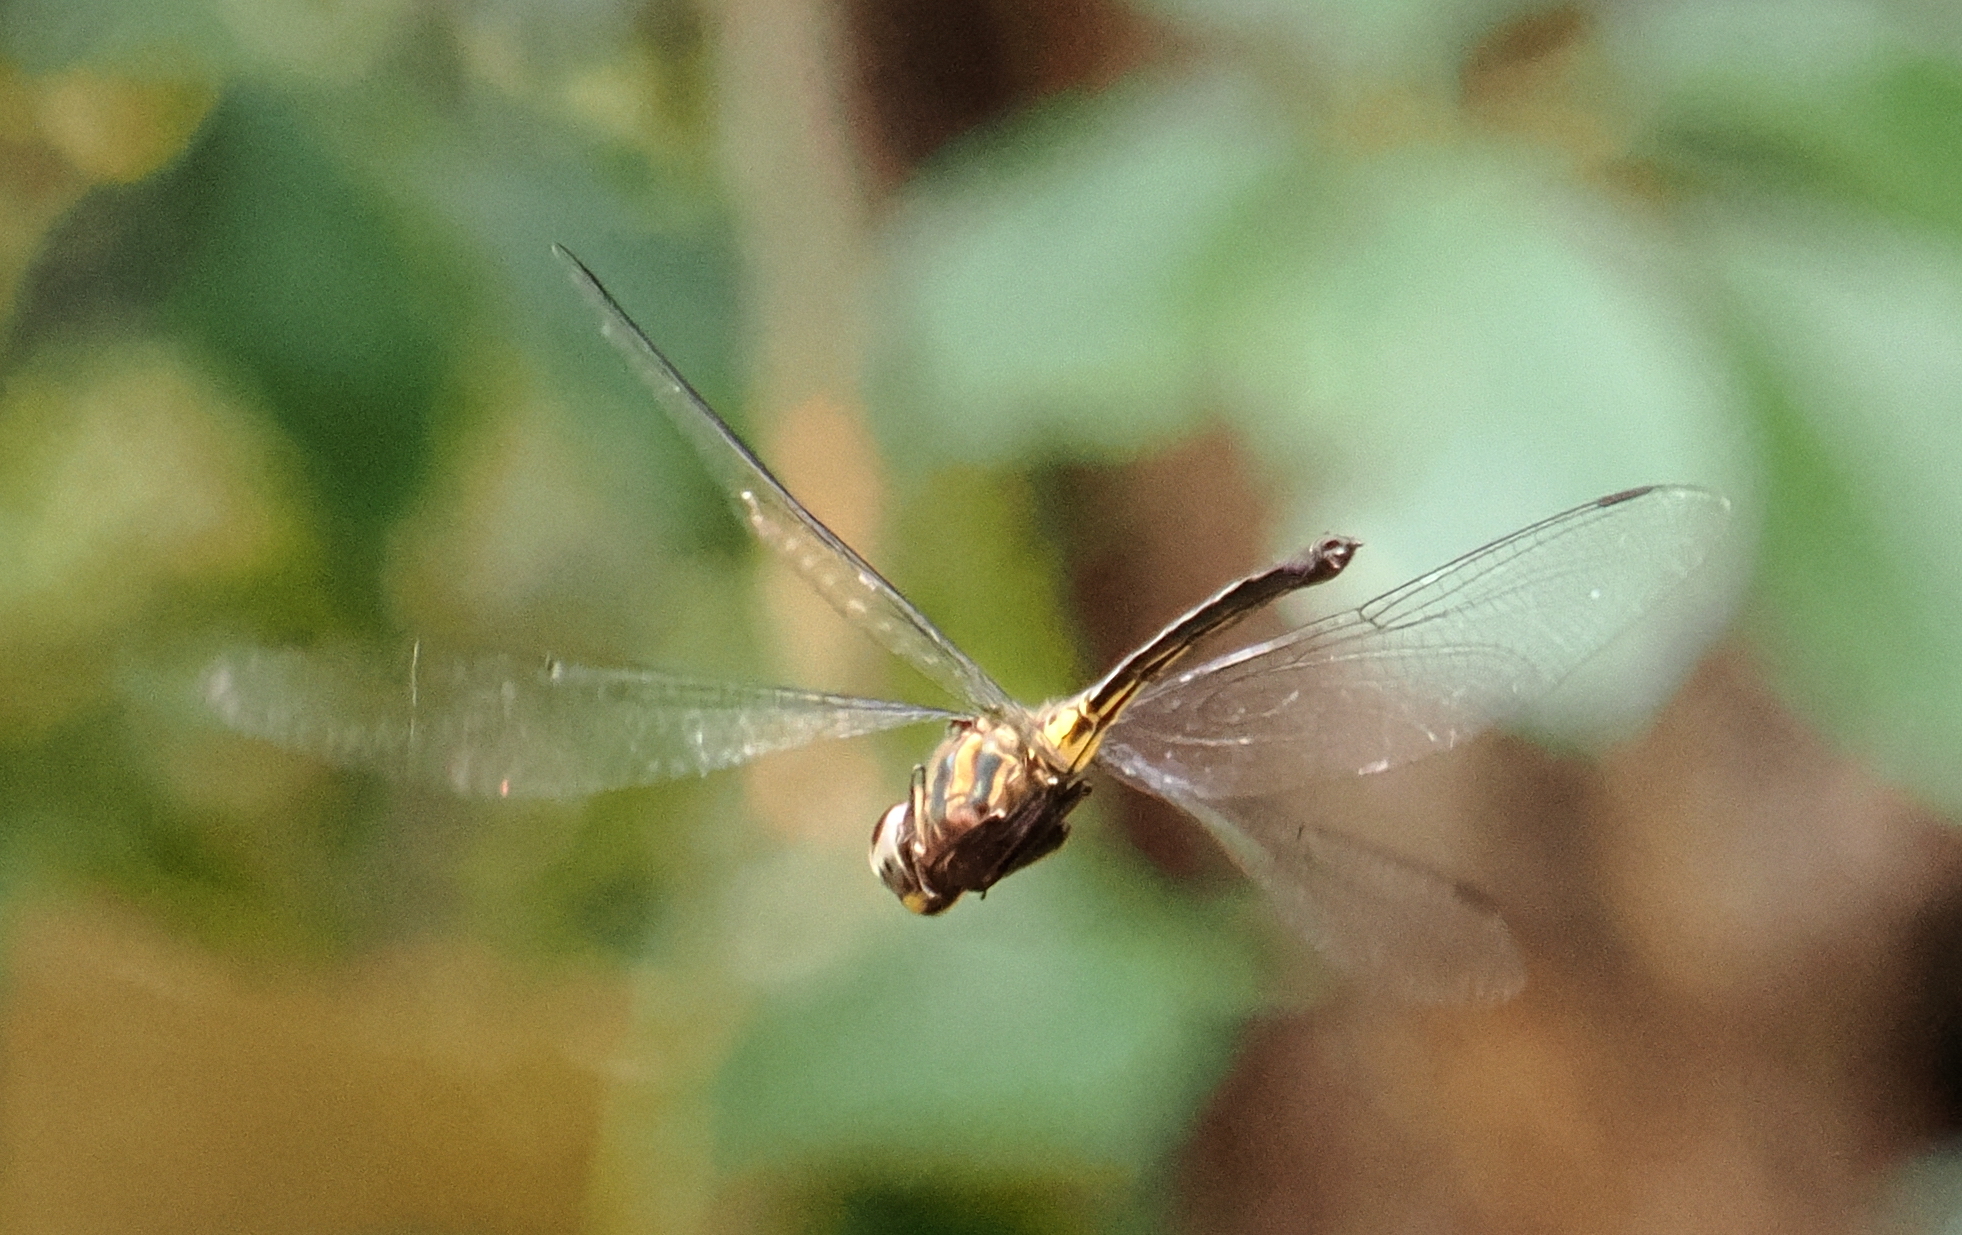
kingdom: Animalia
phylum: Arthropoda
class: Insecta
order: Odonata
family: Libellulidae
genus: Zygonyx
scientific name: Zygonyx iris
